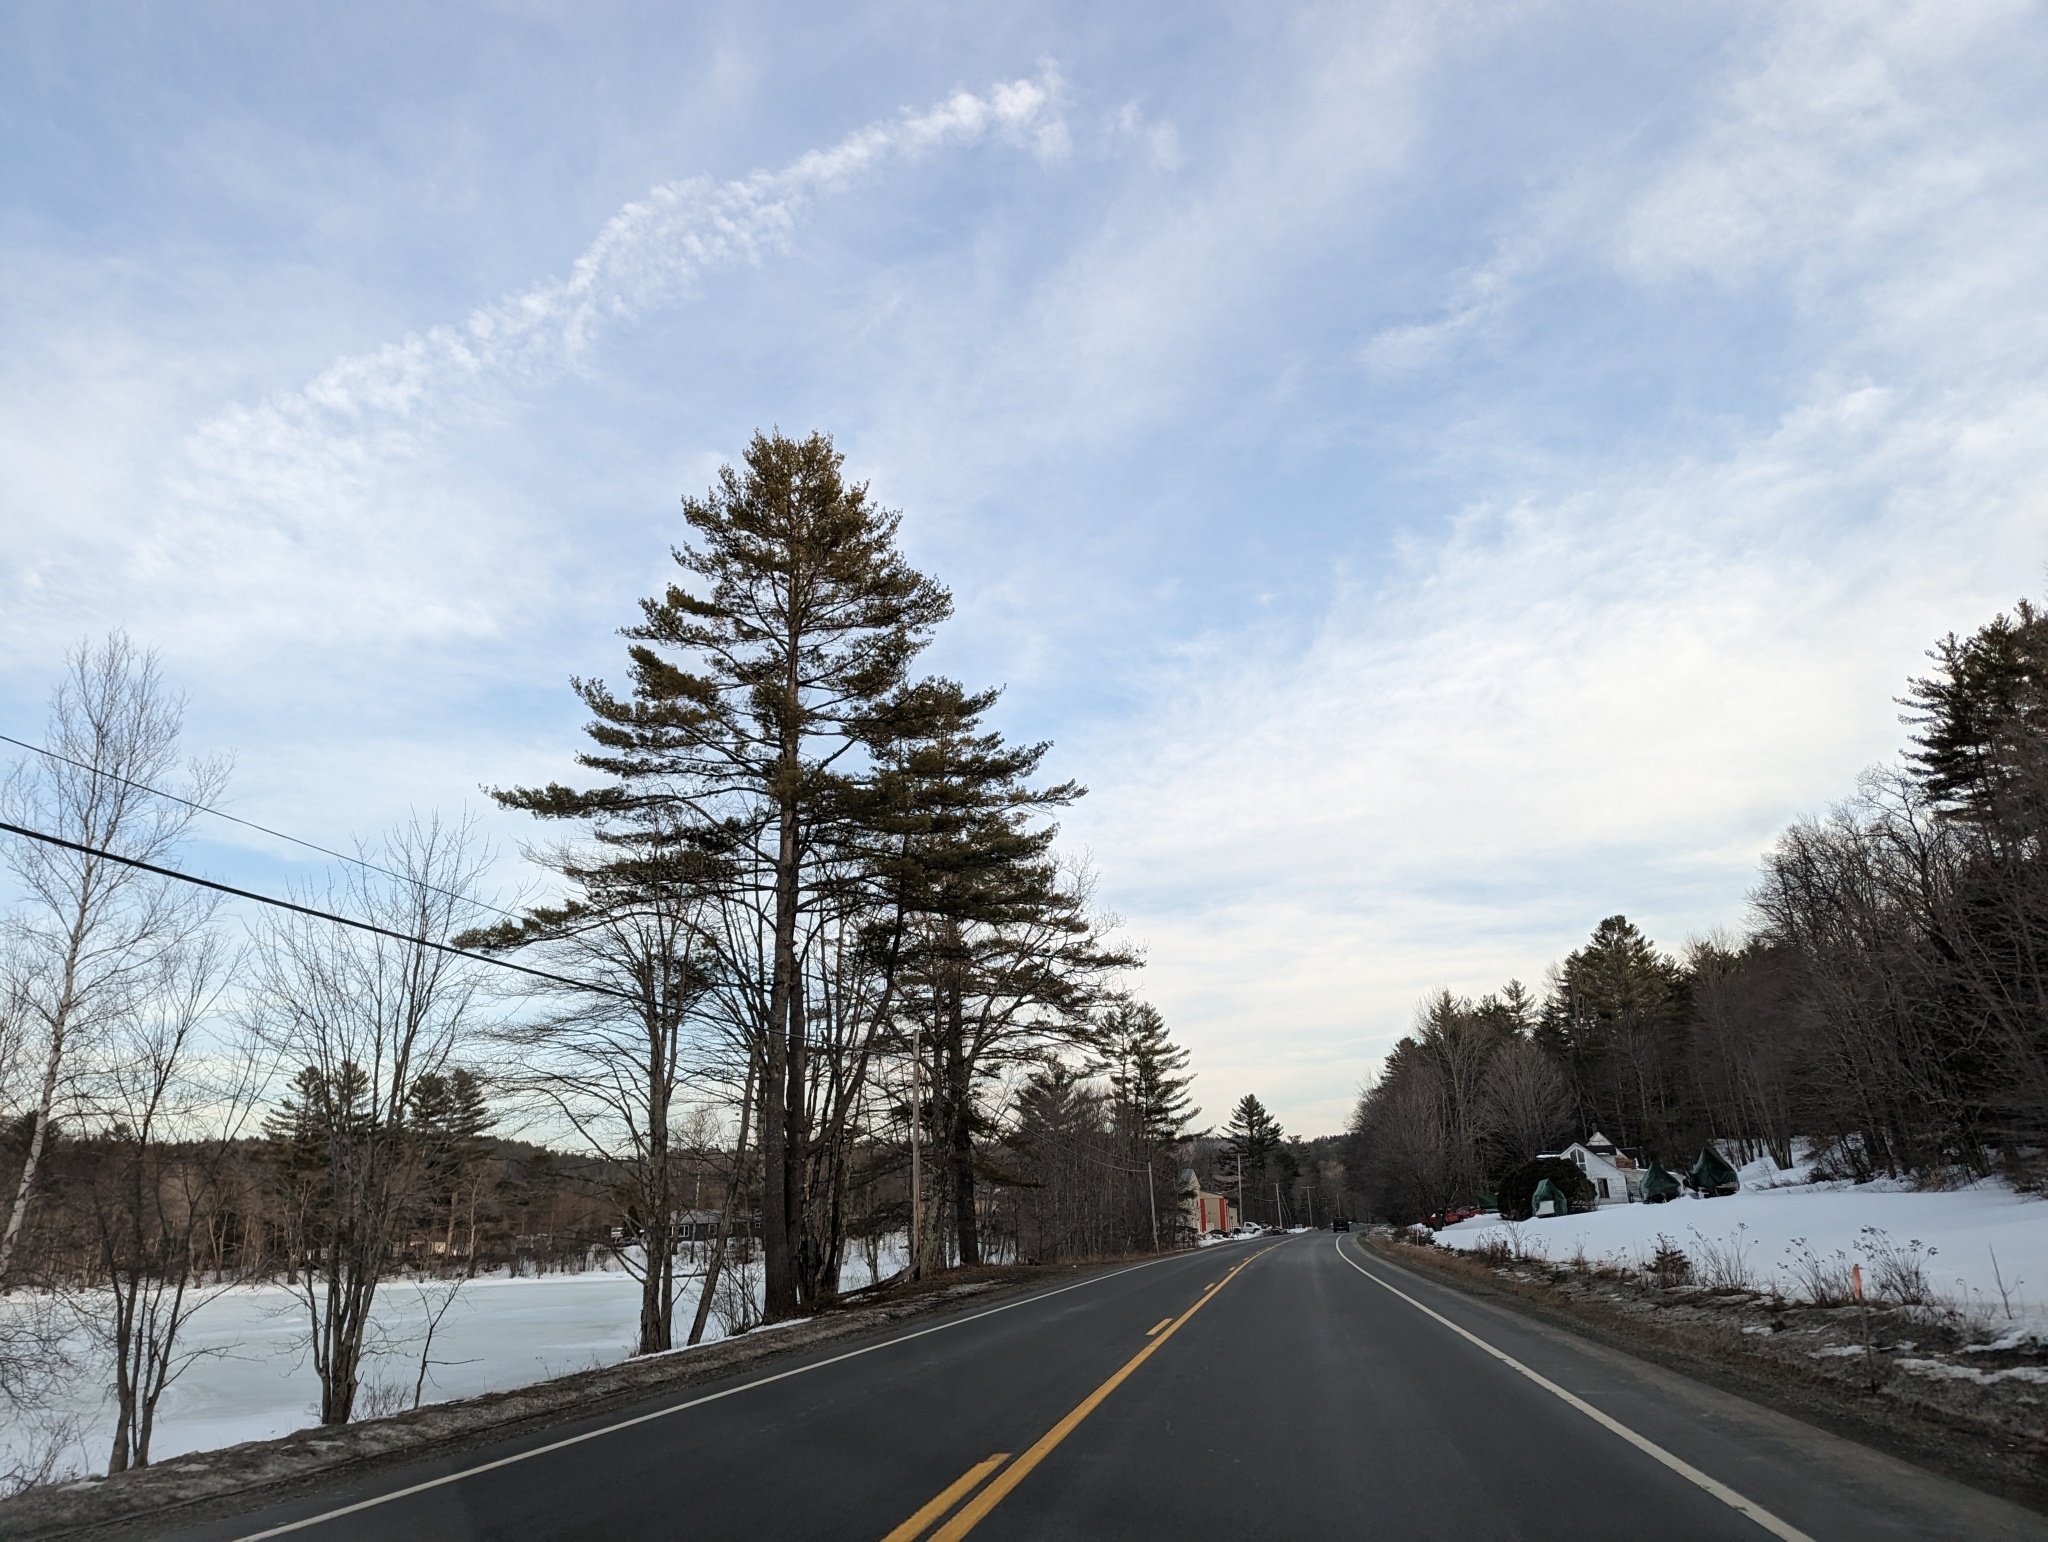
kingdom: Plantae
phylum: Tracheophyta
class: Pinopsida
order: Pinales
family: Pinaceae
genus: Pinus
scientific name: Pinus strobus
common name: Weymouth pine
